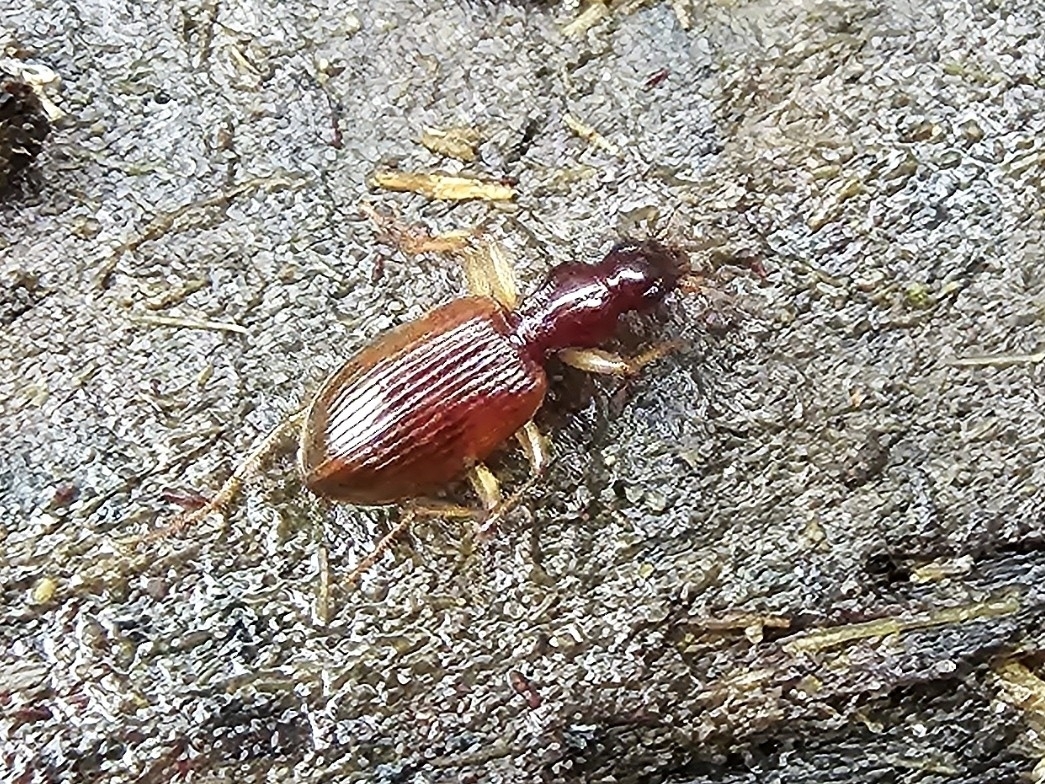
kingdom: Animalia
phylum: Arthropoda
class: Insecta
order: Coleoptera
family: Carabidae
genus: Oxypselaphus
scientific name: Oxypselaphus obscurus
